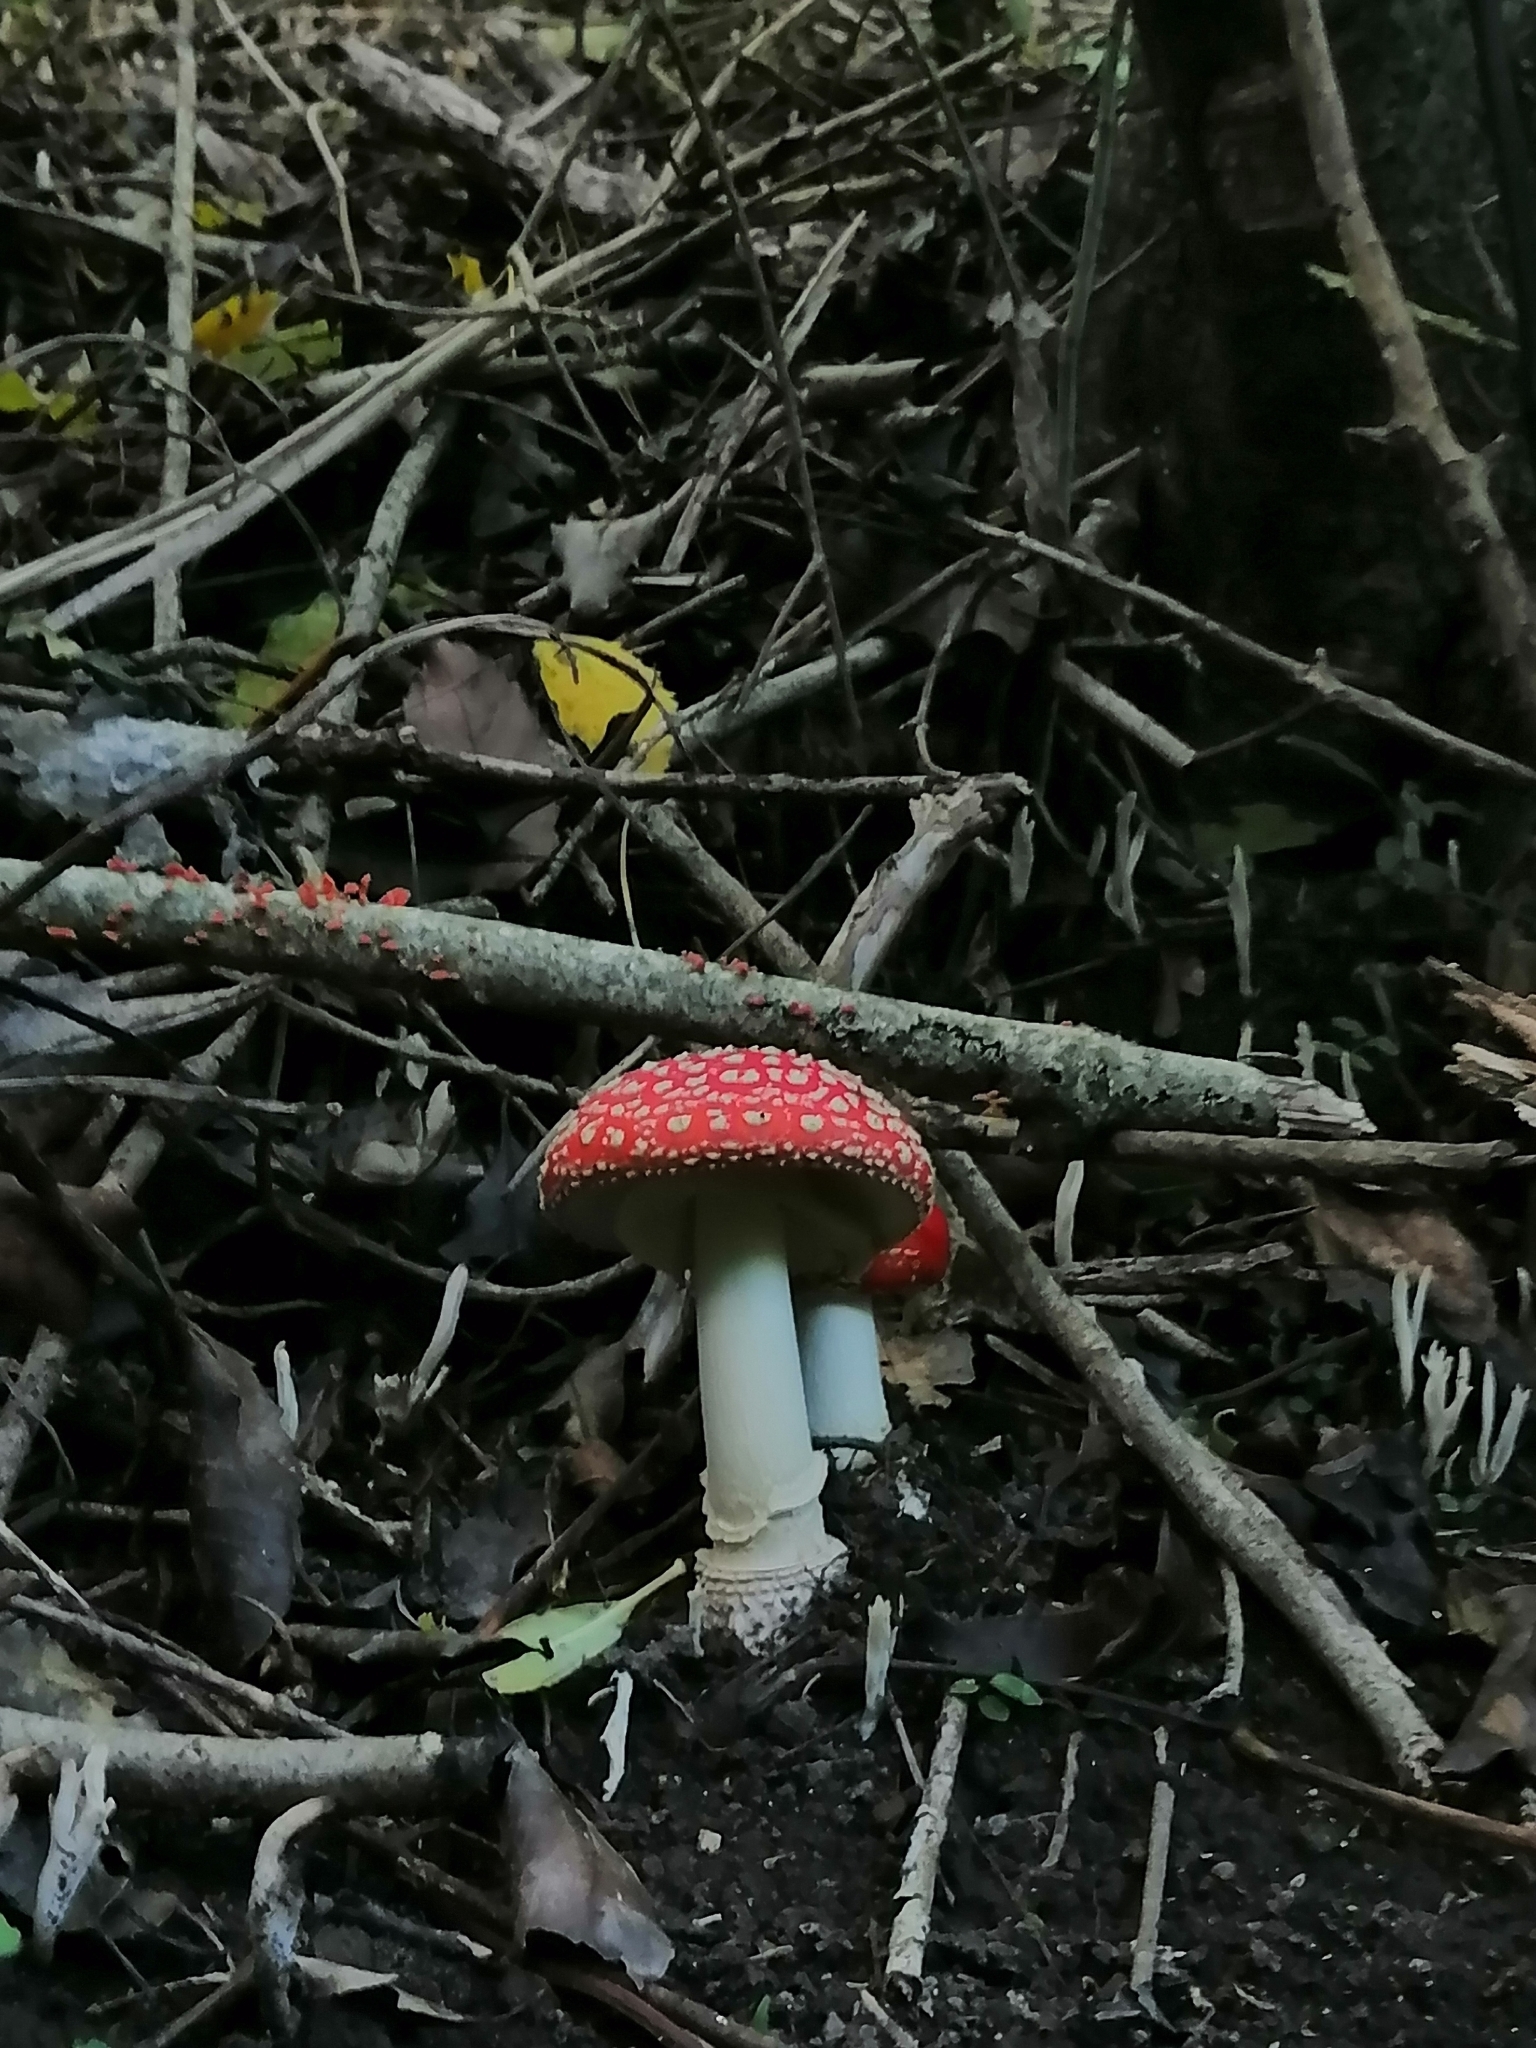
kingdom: Fungi
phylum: Basidiomycota
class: Agaricomycetes
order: Agaricales
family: Amanitaceae
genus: Amanita
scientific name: Amanita muscaria
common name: Fly agaric
